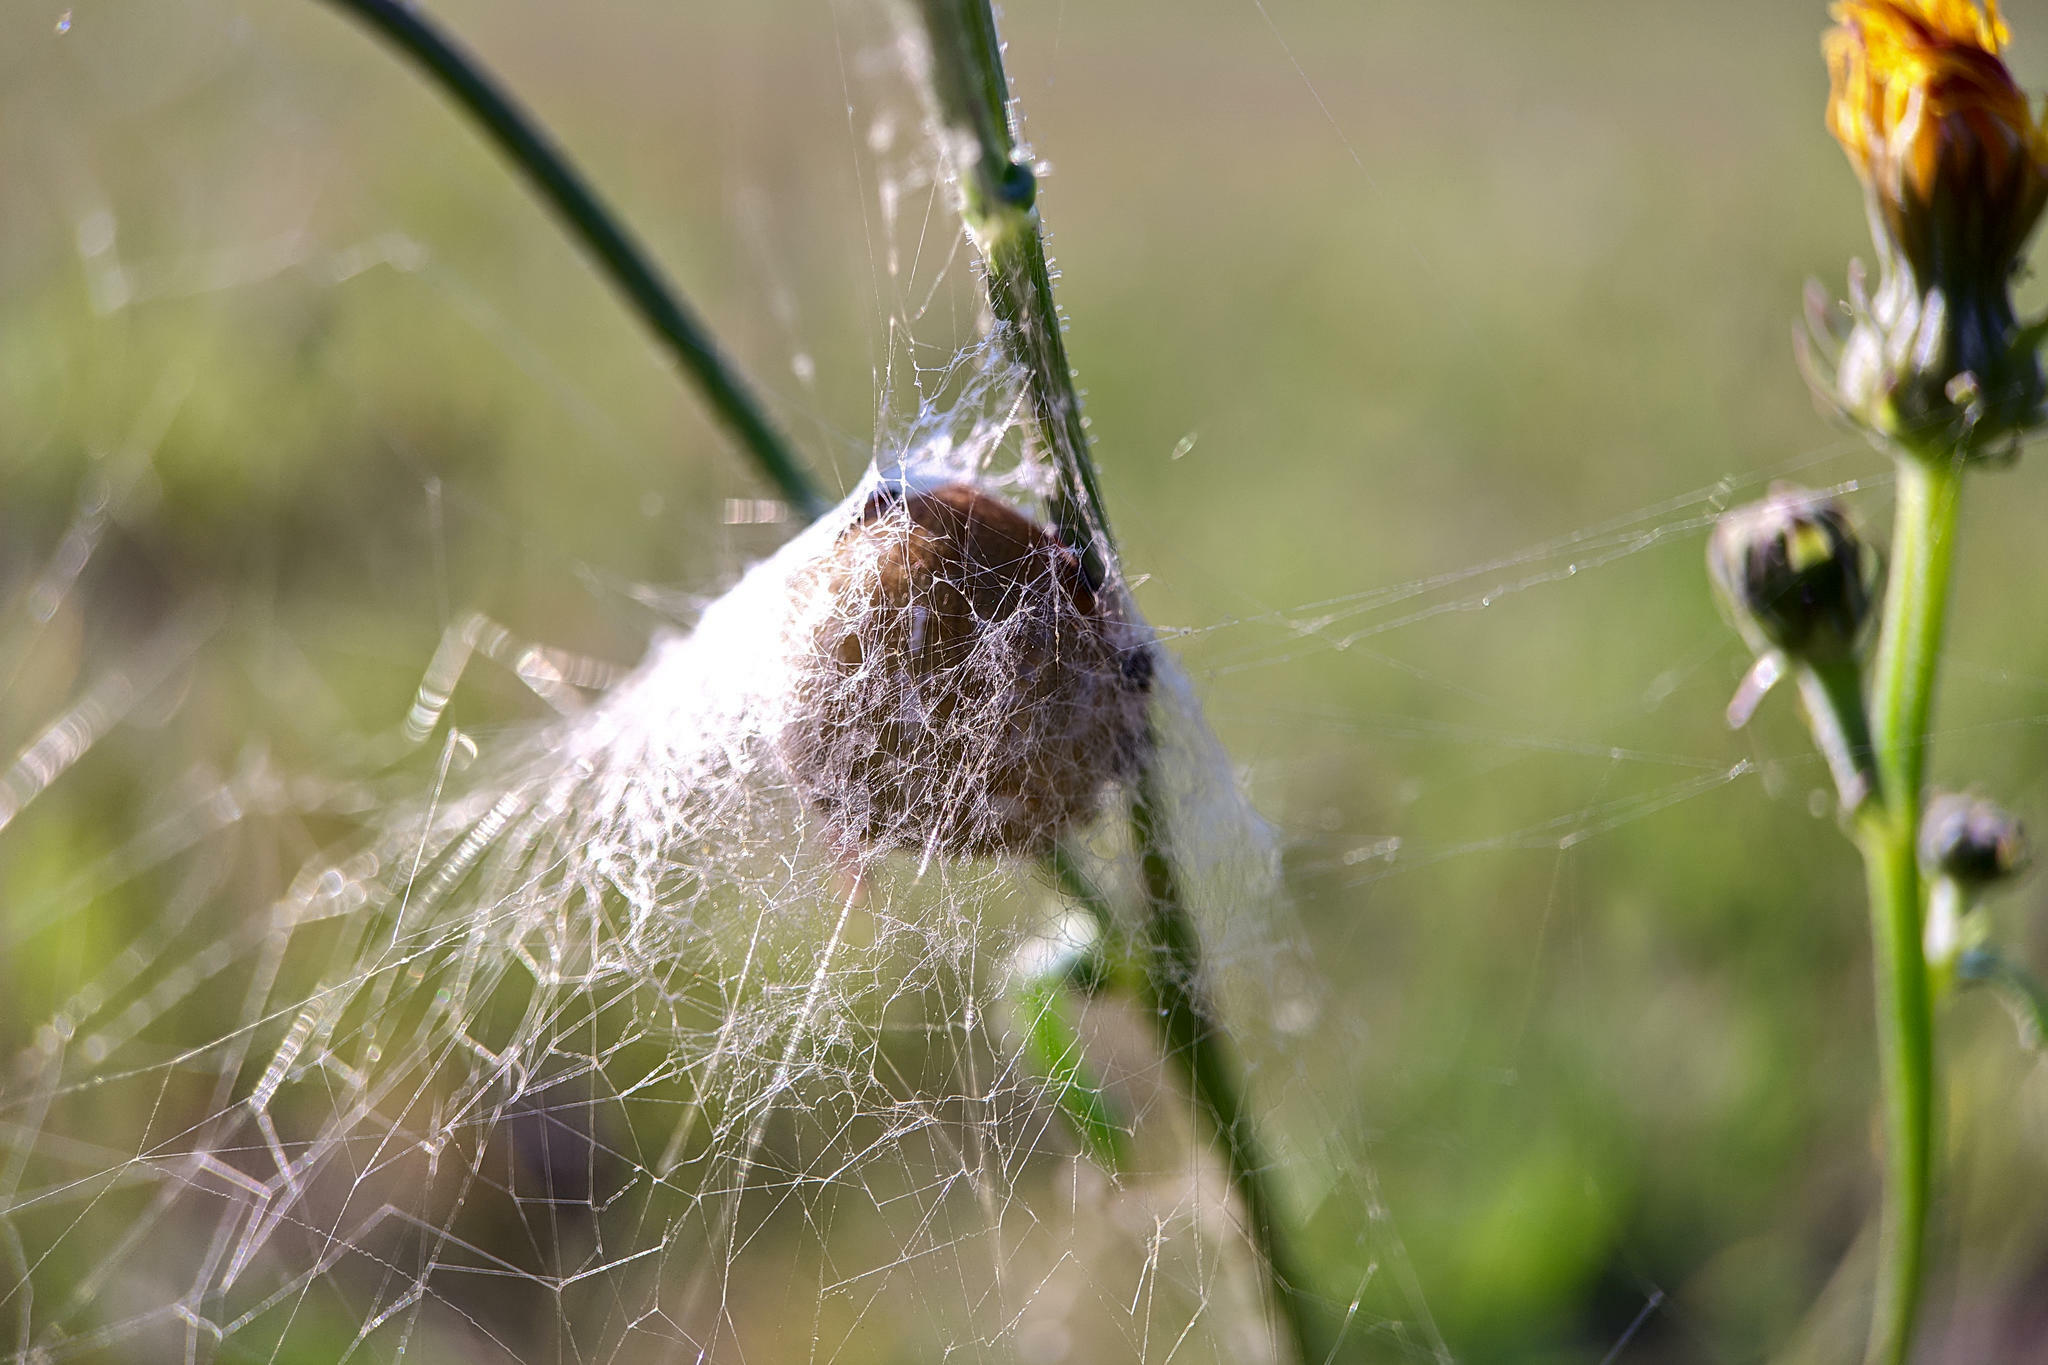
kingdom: Animalia
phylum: Arthropoda
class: Arachnida
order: Araneae
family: Araneidae
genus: Araneus
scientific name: Araneus quadratus
